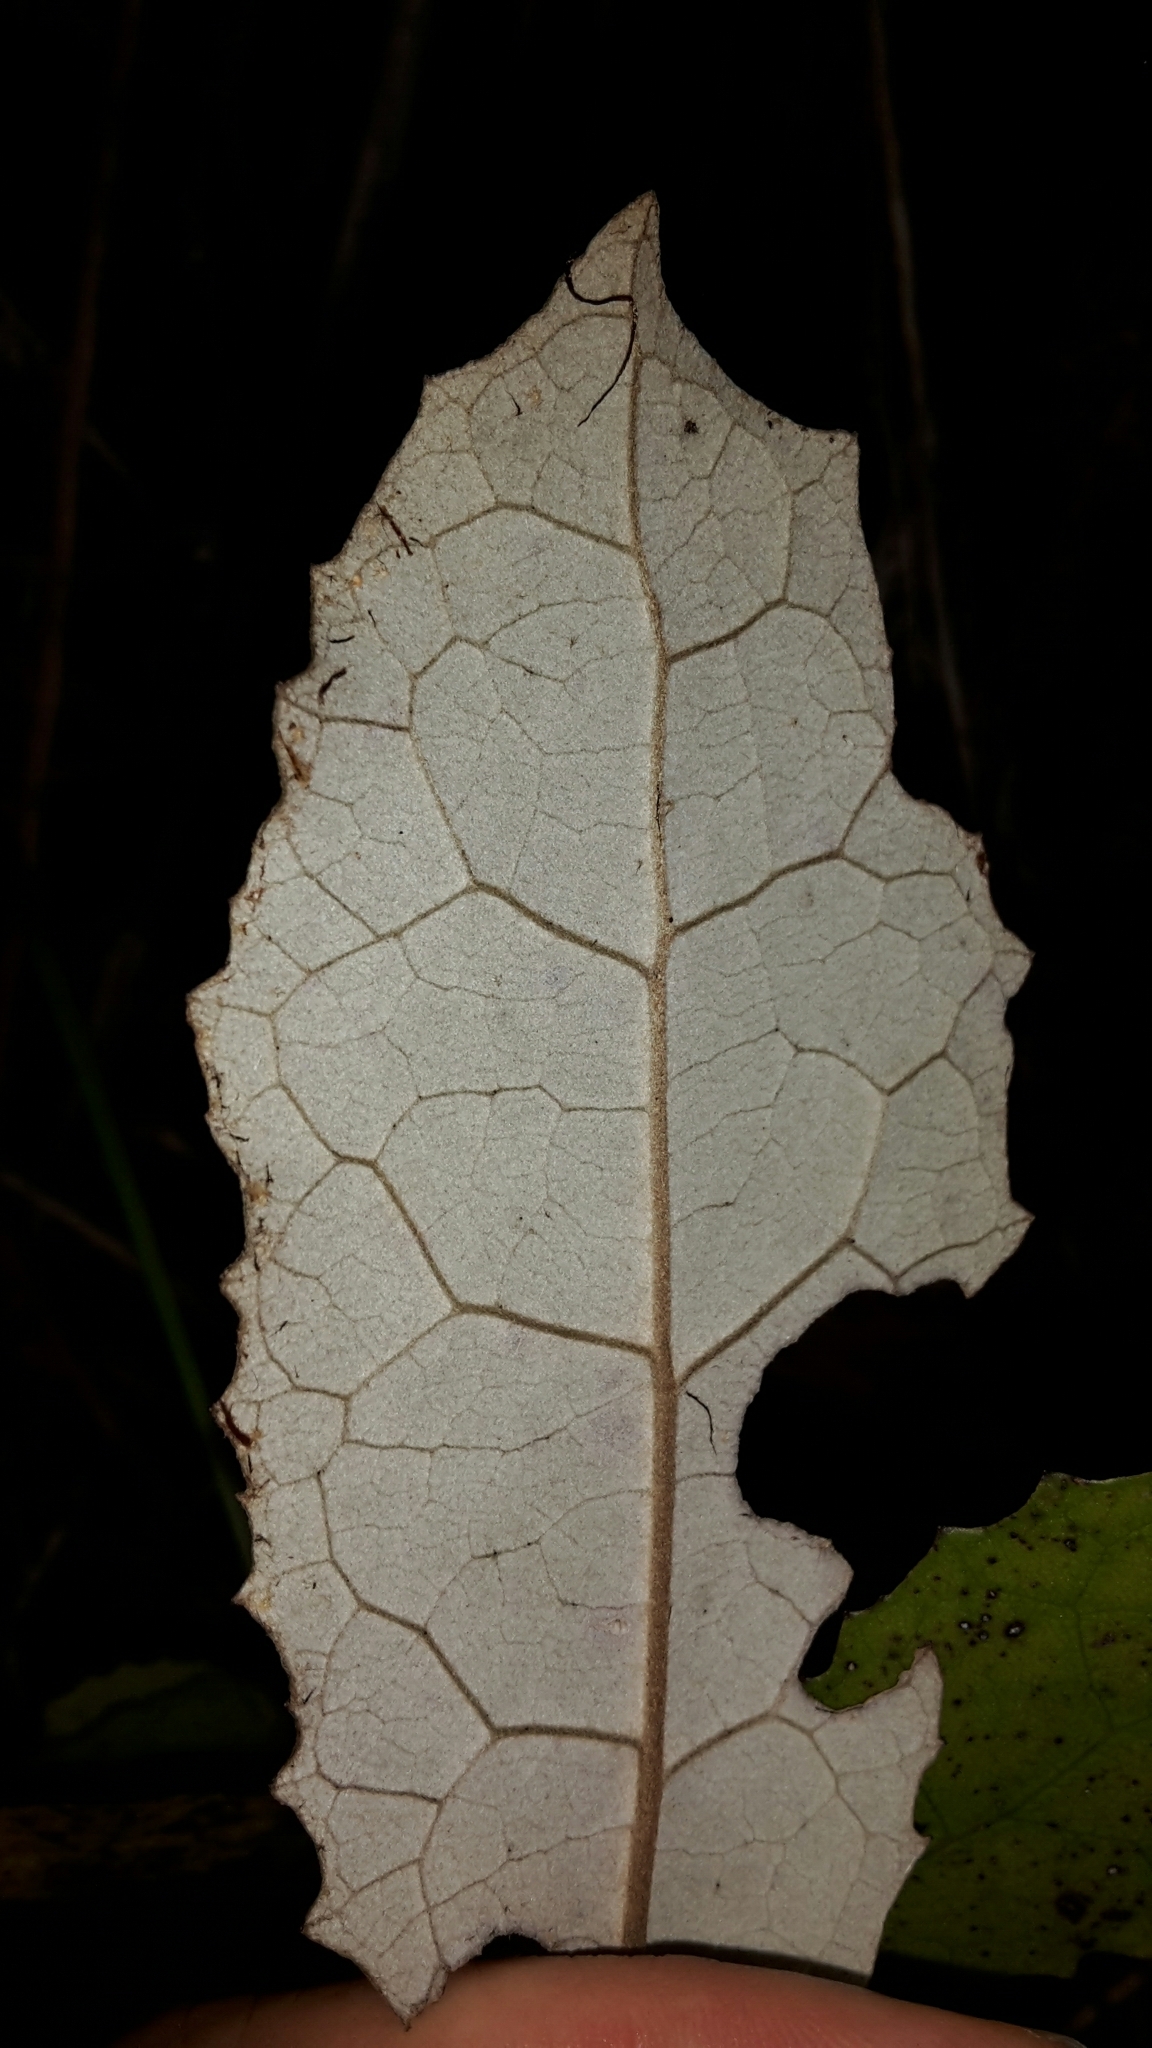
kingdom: Plantae
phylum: Tracheophyta
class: Magnoliopsida
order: Asterales
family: Asteraceae
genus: Olearia
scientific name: Olearia rani
